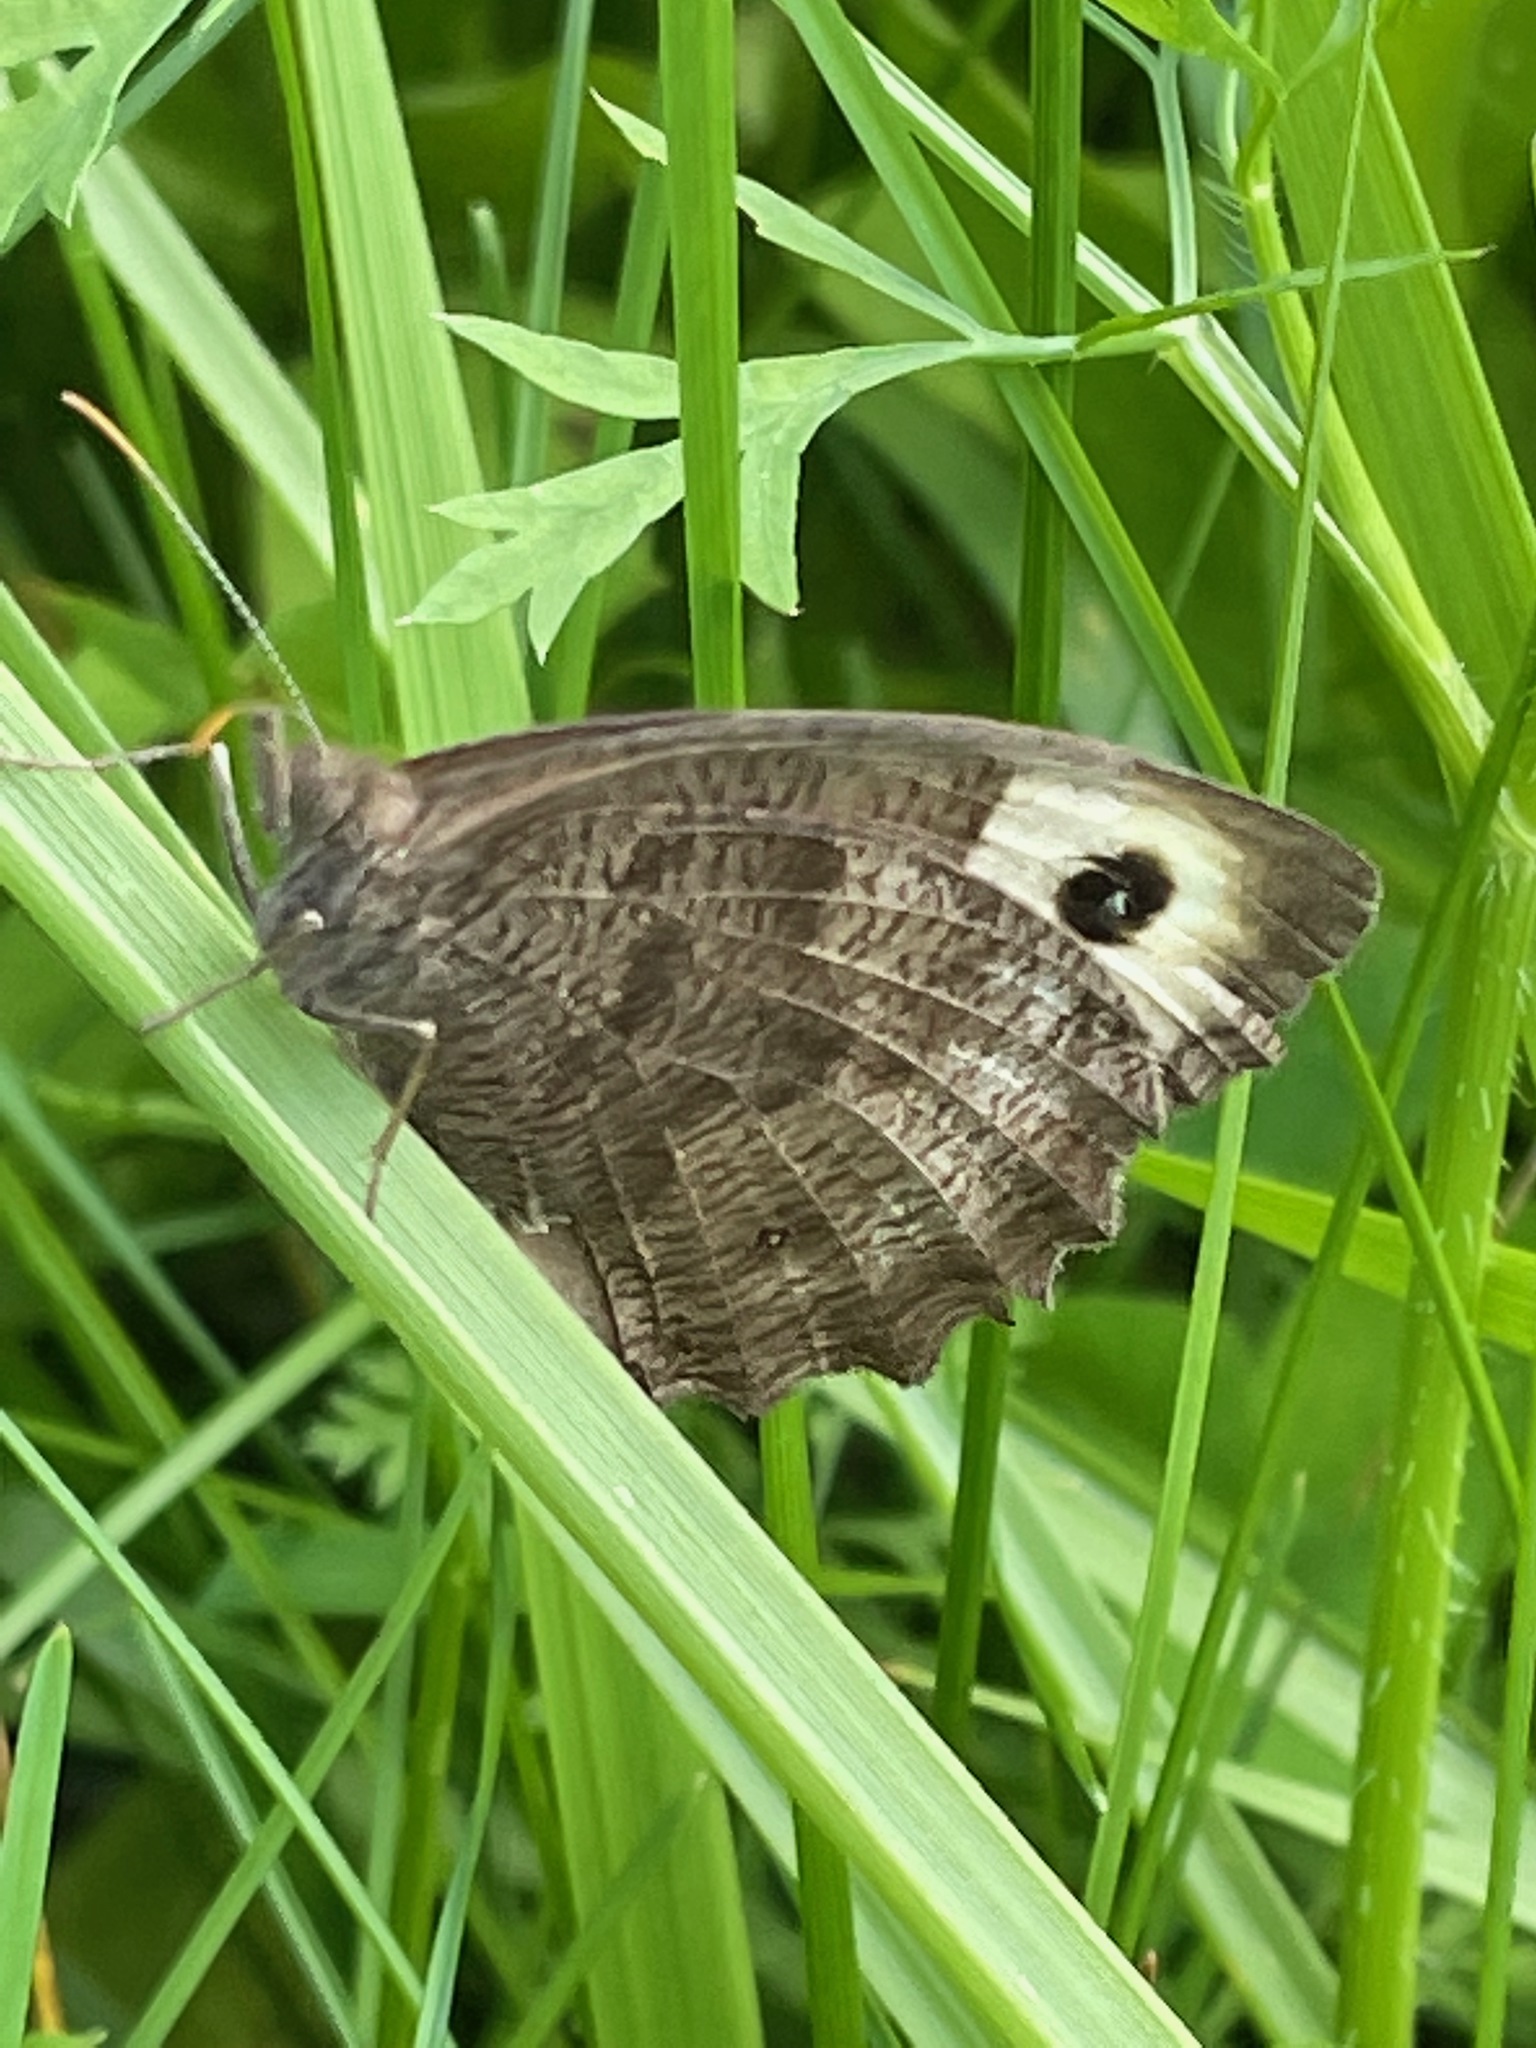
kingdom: Animalia
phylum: Arthropoda
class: Insecta
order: Lepidoptera
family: Nymphalidae
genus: Cercyonis
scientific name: Cercyonis pegala
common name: Common wood-nymph
